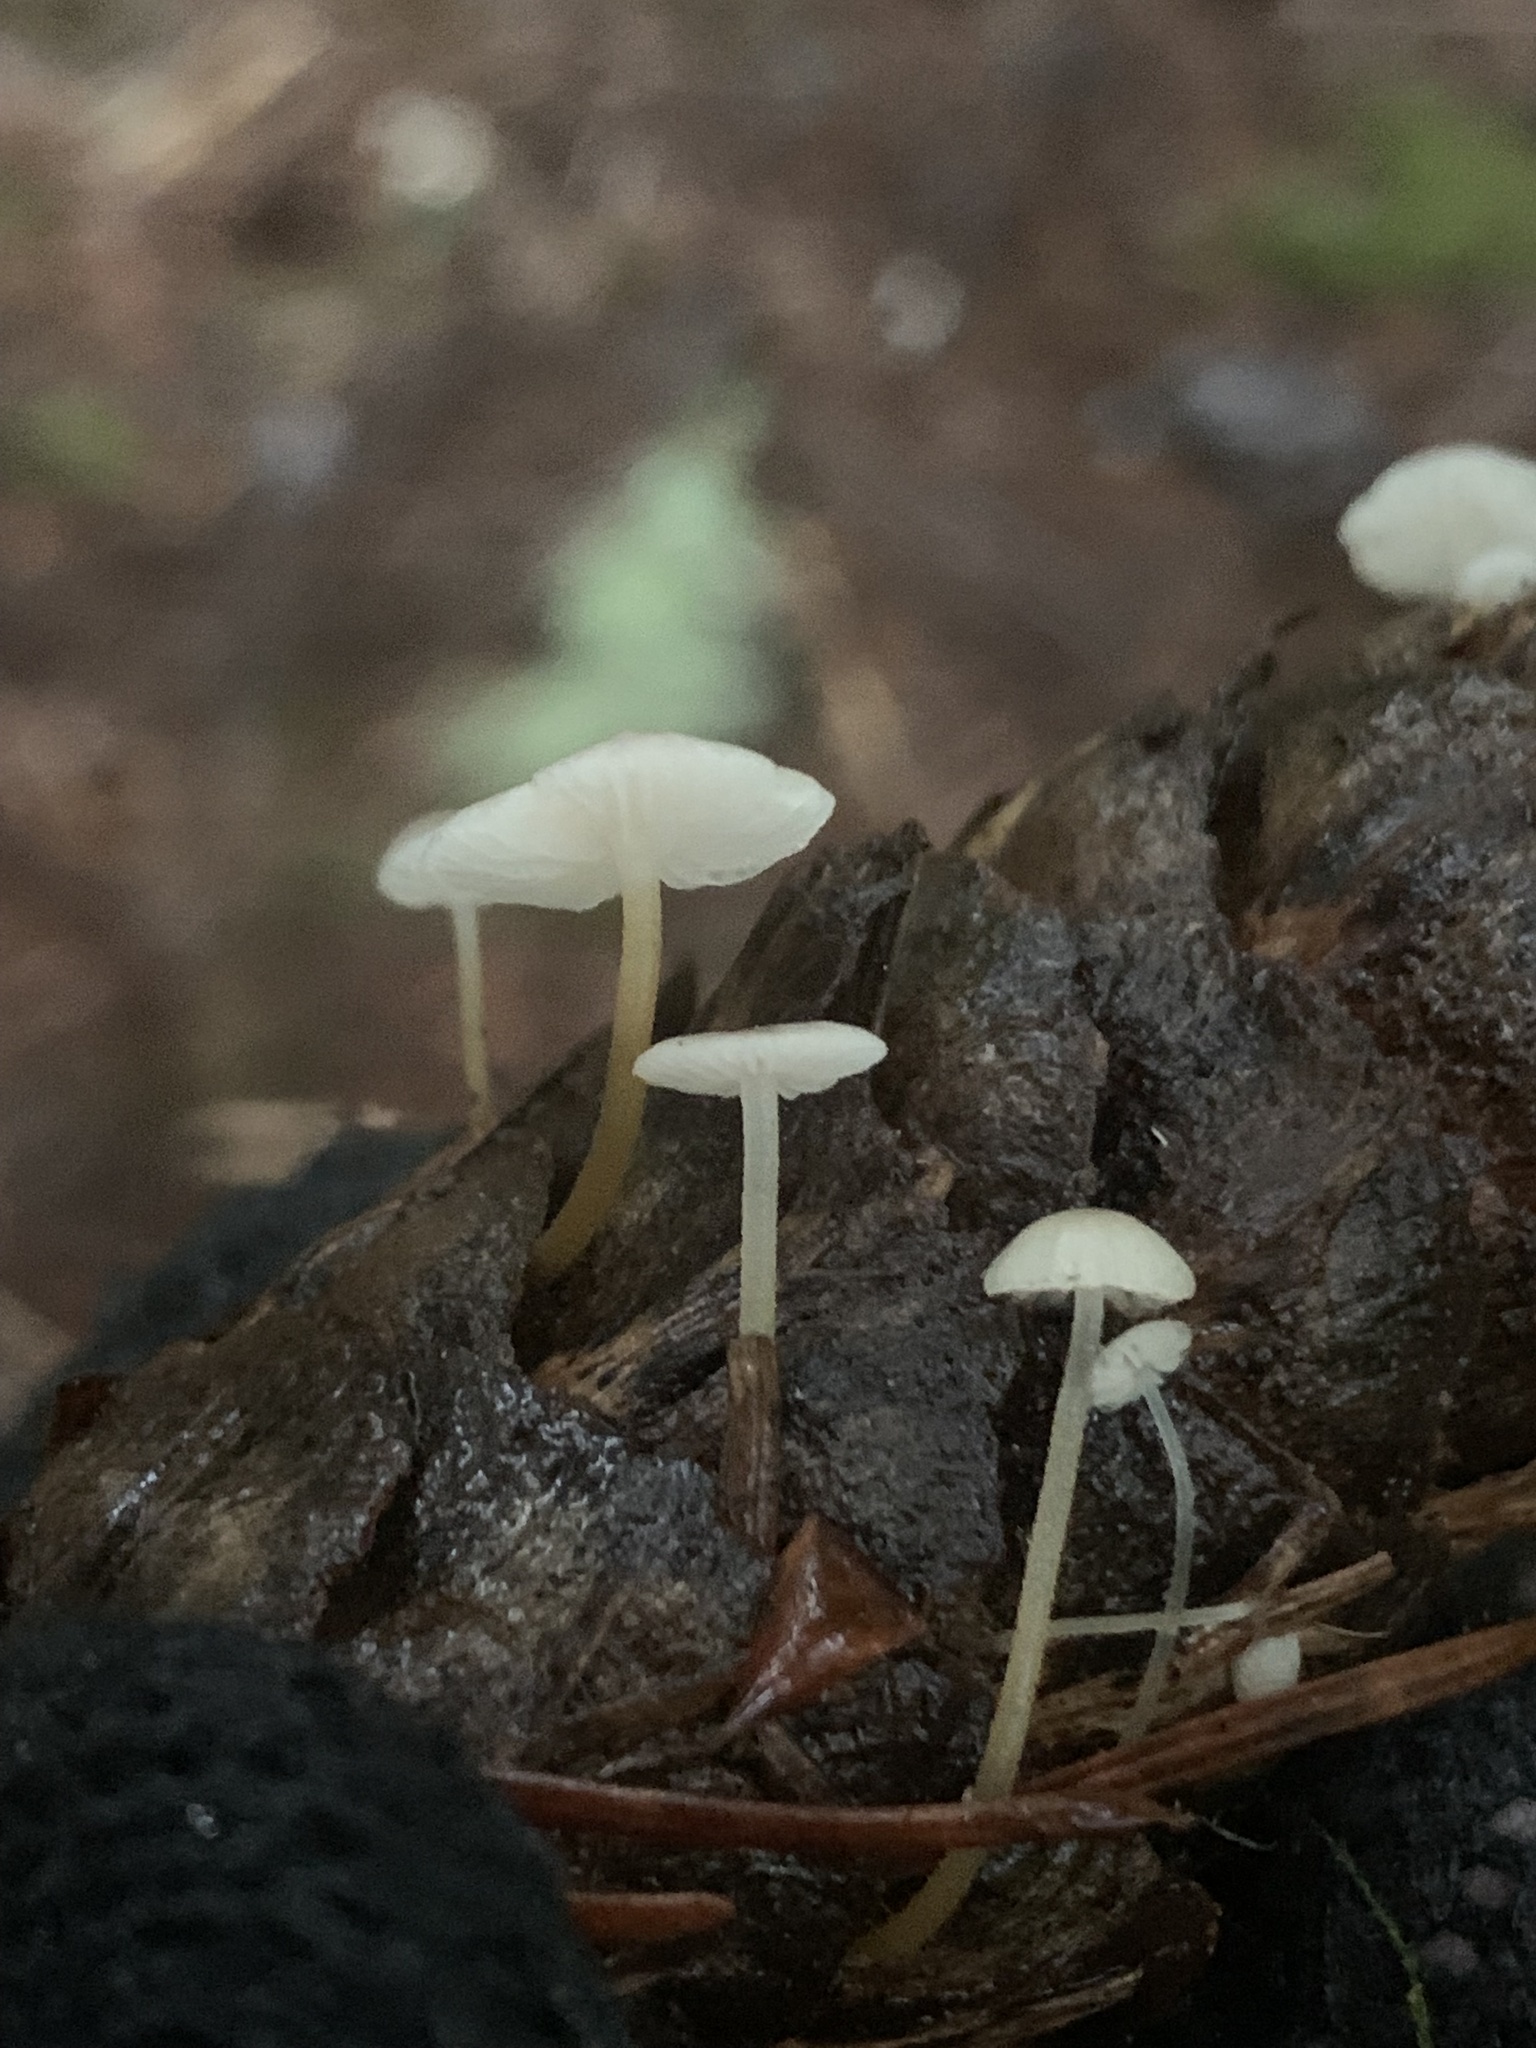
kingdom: Fungi
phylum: Basidiomycota
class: Agaricomycetes
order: Agaricales
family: Physalacriaceae
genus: Strobilurus
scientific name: Strobilurus trullisatus
